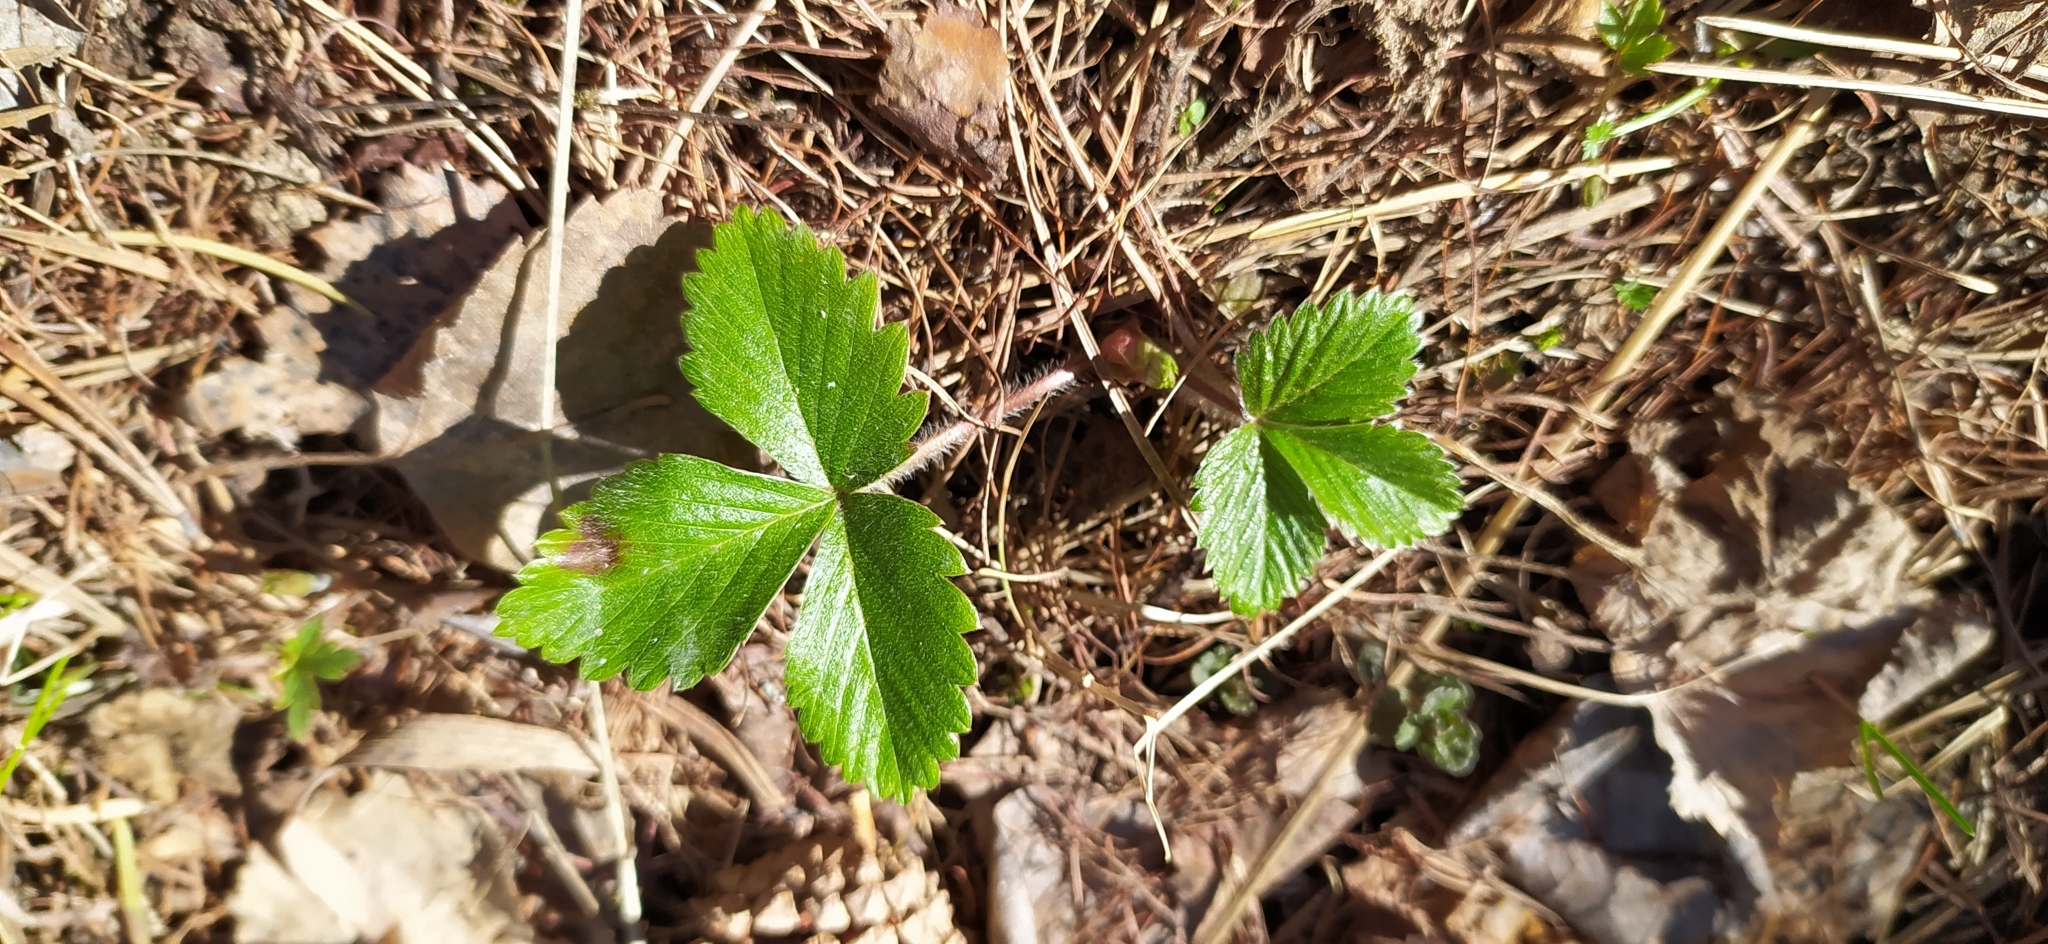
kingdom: Plantae
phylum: Tracheophyta
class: Magnoliopsida
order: Rosales
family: Rosaceae
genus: Fragaria
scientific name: Fragaria vesca
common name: Wild strawberry
